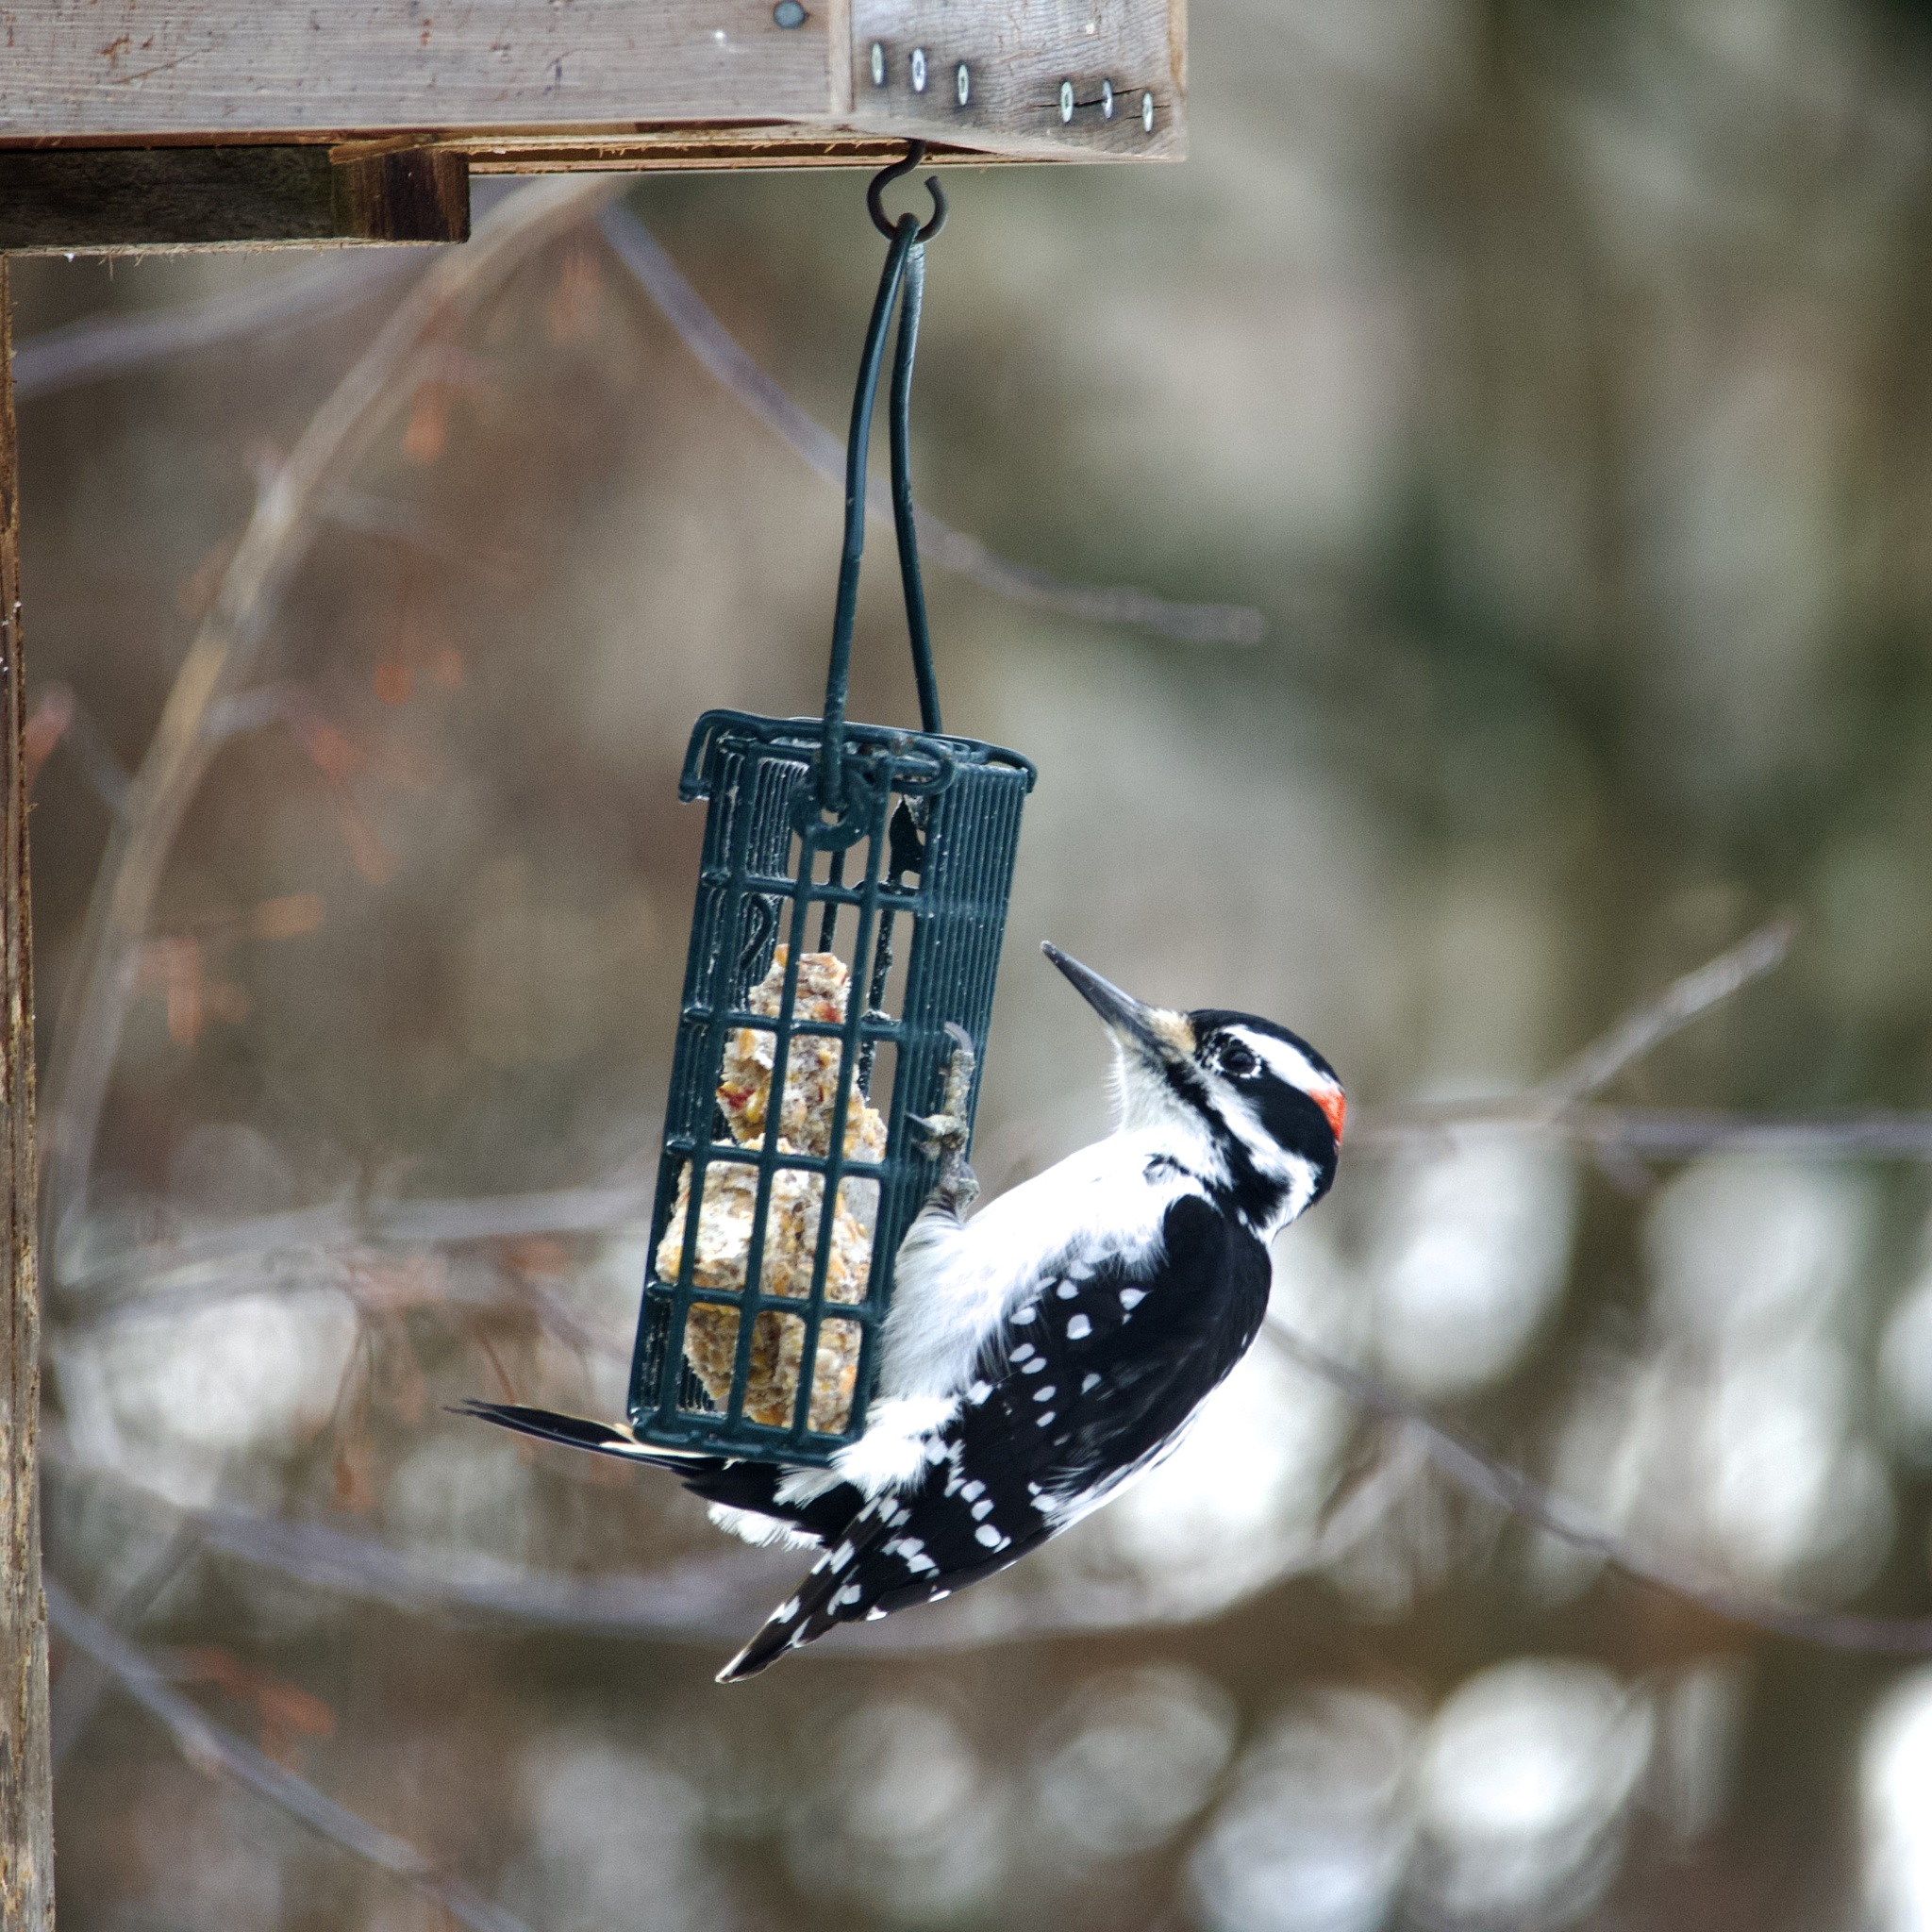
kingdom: Animalia
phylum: Chordata
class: Aves
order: Piciformes
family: Picidae
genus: Leuconotopicus
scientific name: Leuconotopicus villosus
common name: Hairy woodpecker
